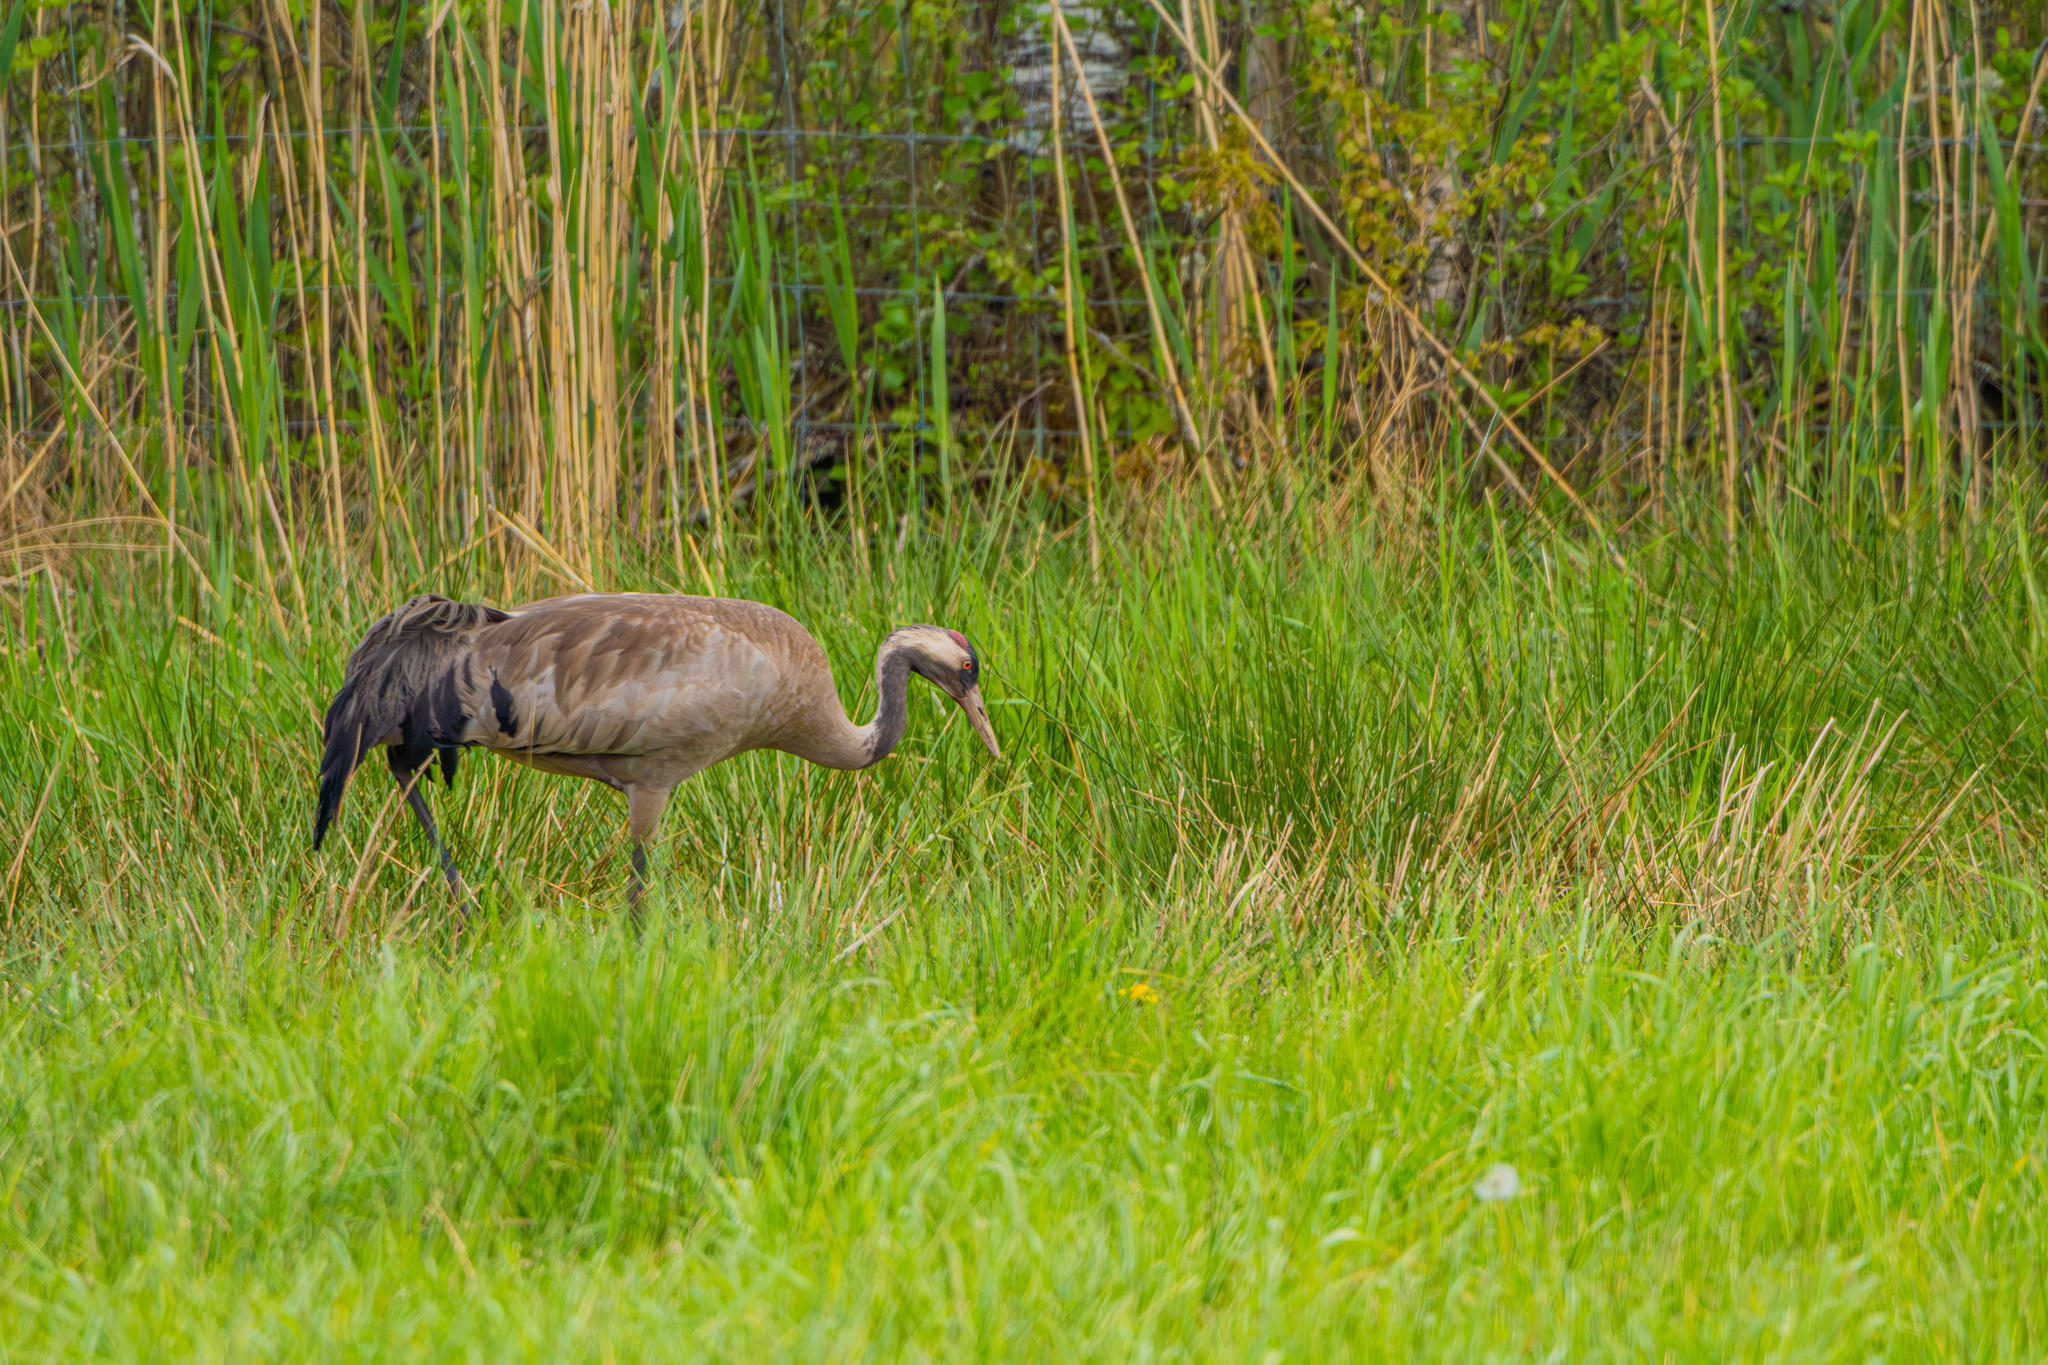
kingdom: Animalia
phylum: Chordata
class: Aves
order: Gruiformes
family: Gruidae
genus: Grus
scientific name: Grus grus
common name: Common crane
